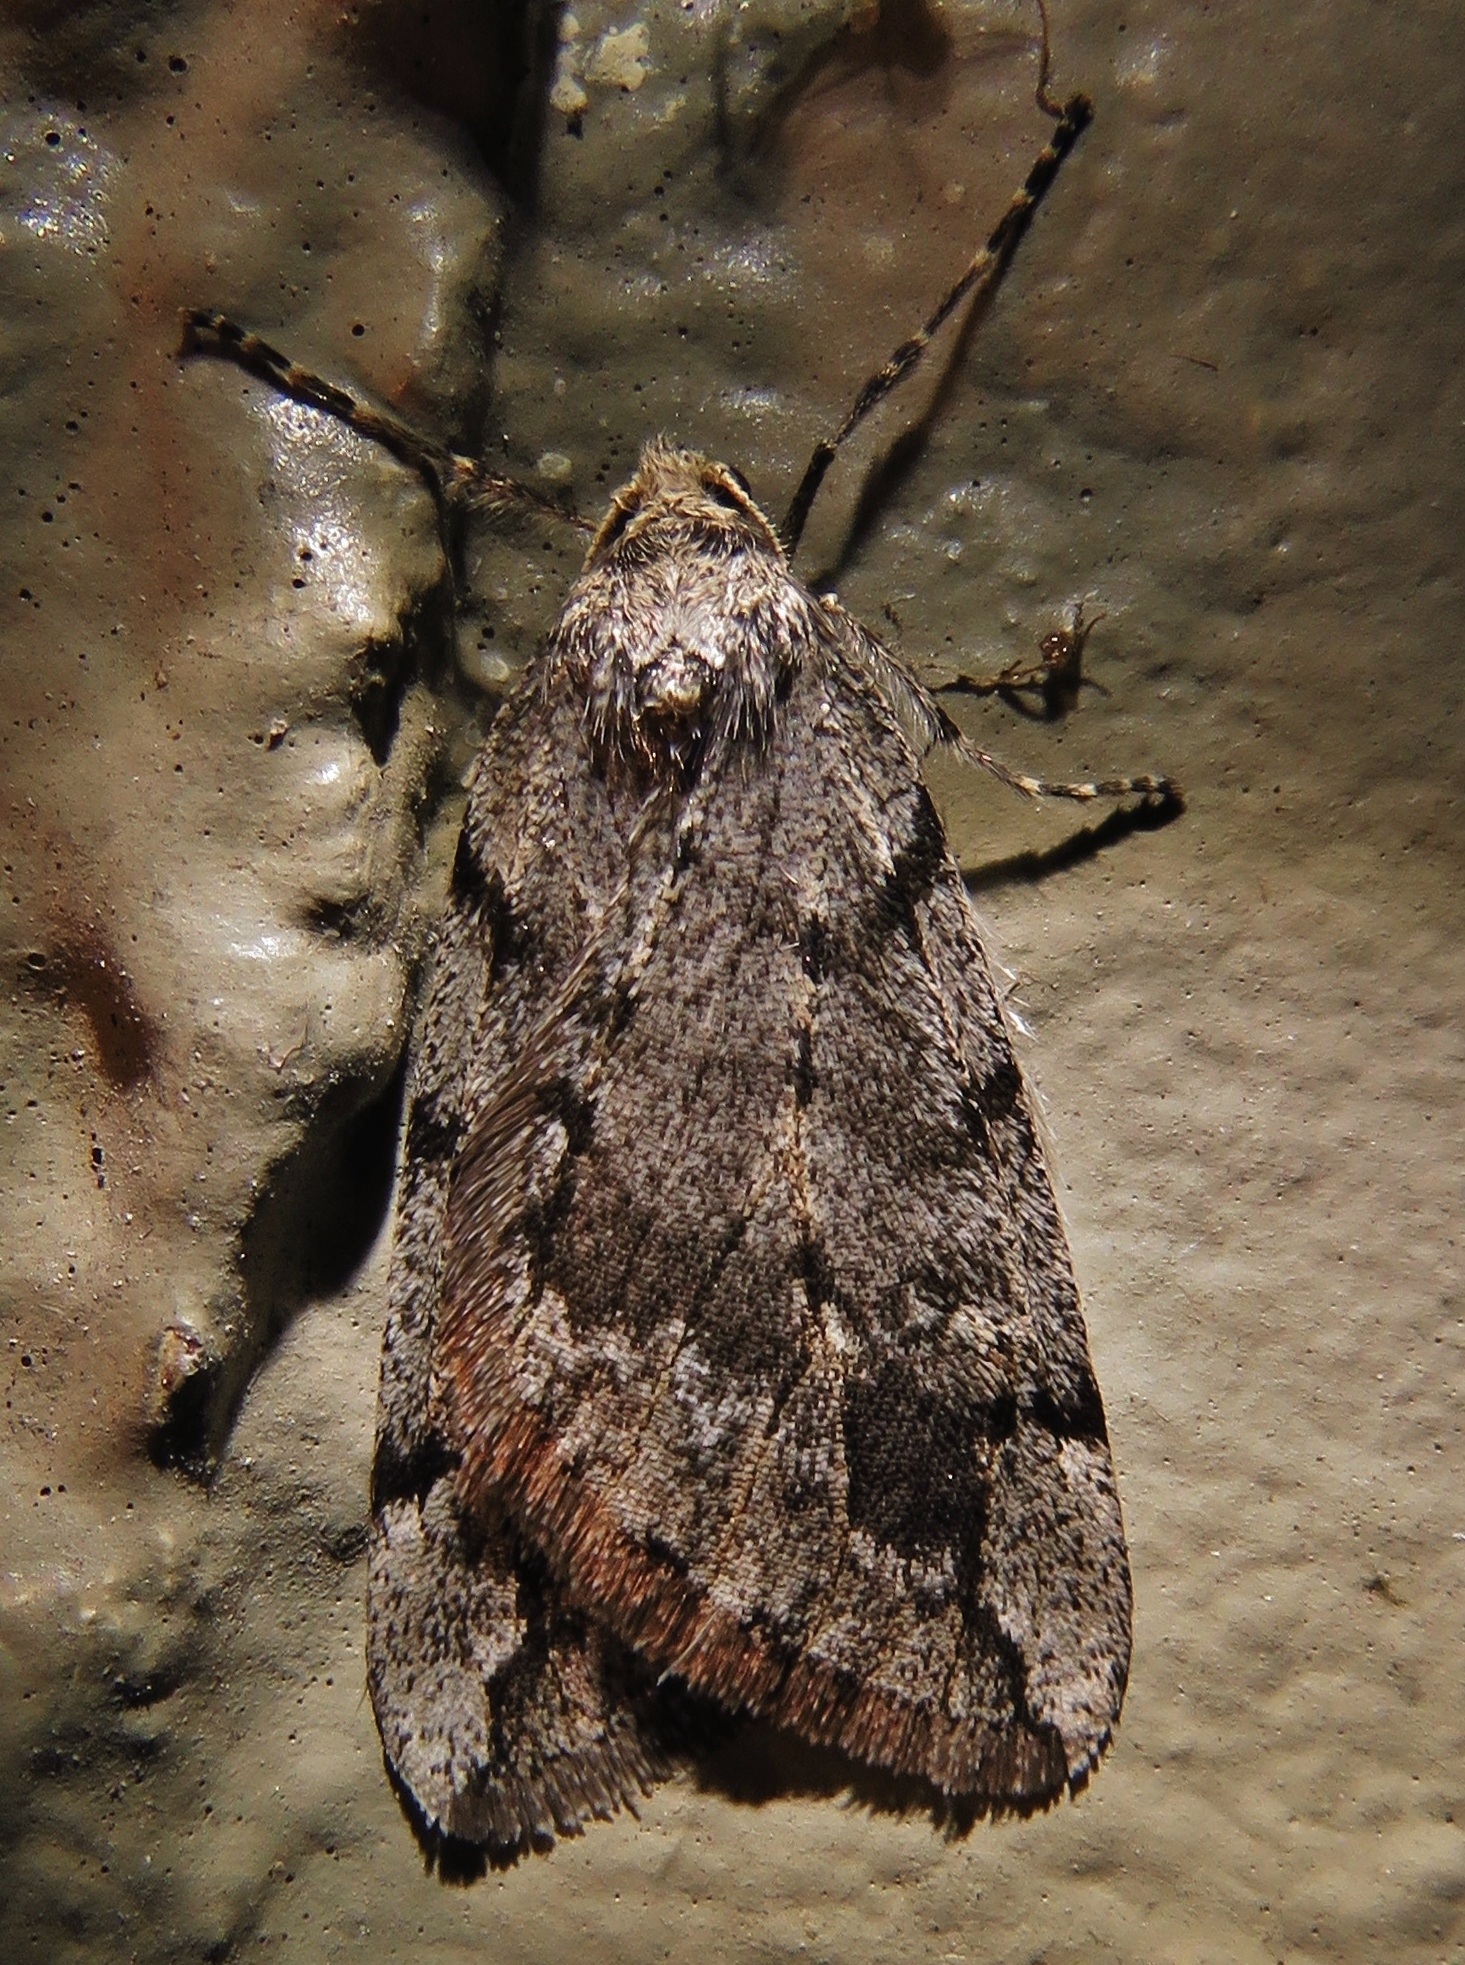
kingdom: Animalia
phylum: Arthropoda
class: Insecta
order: Lepidoptera
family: Geometridae
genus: Paleacrita
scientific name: Paleacrita vernata
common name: Spring cankerworm
